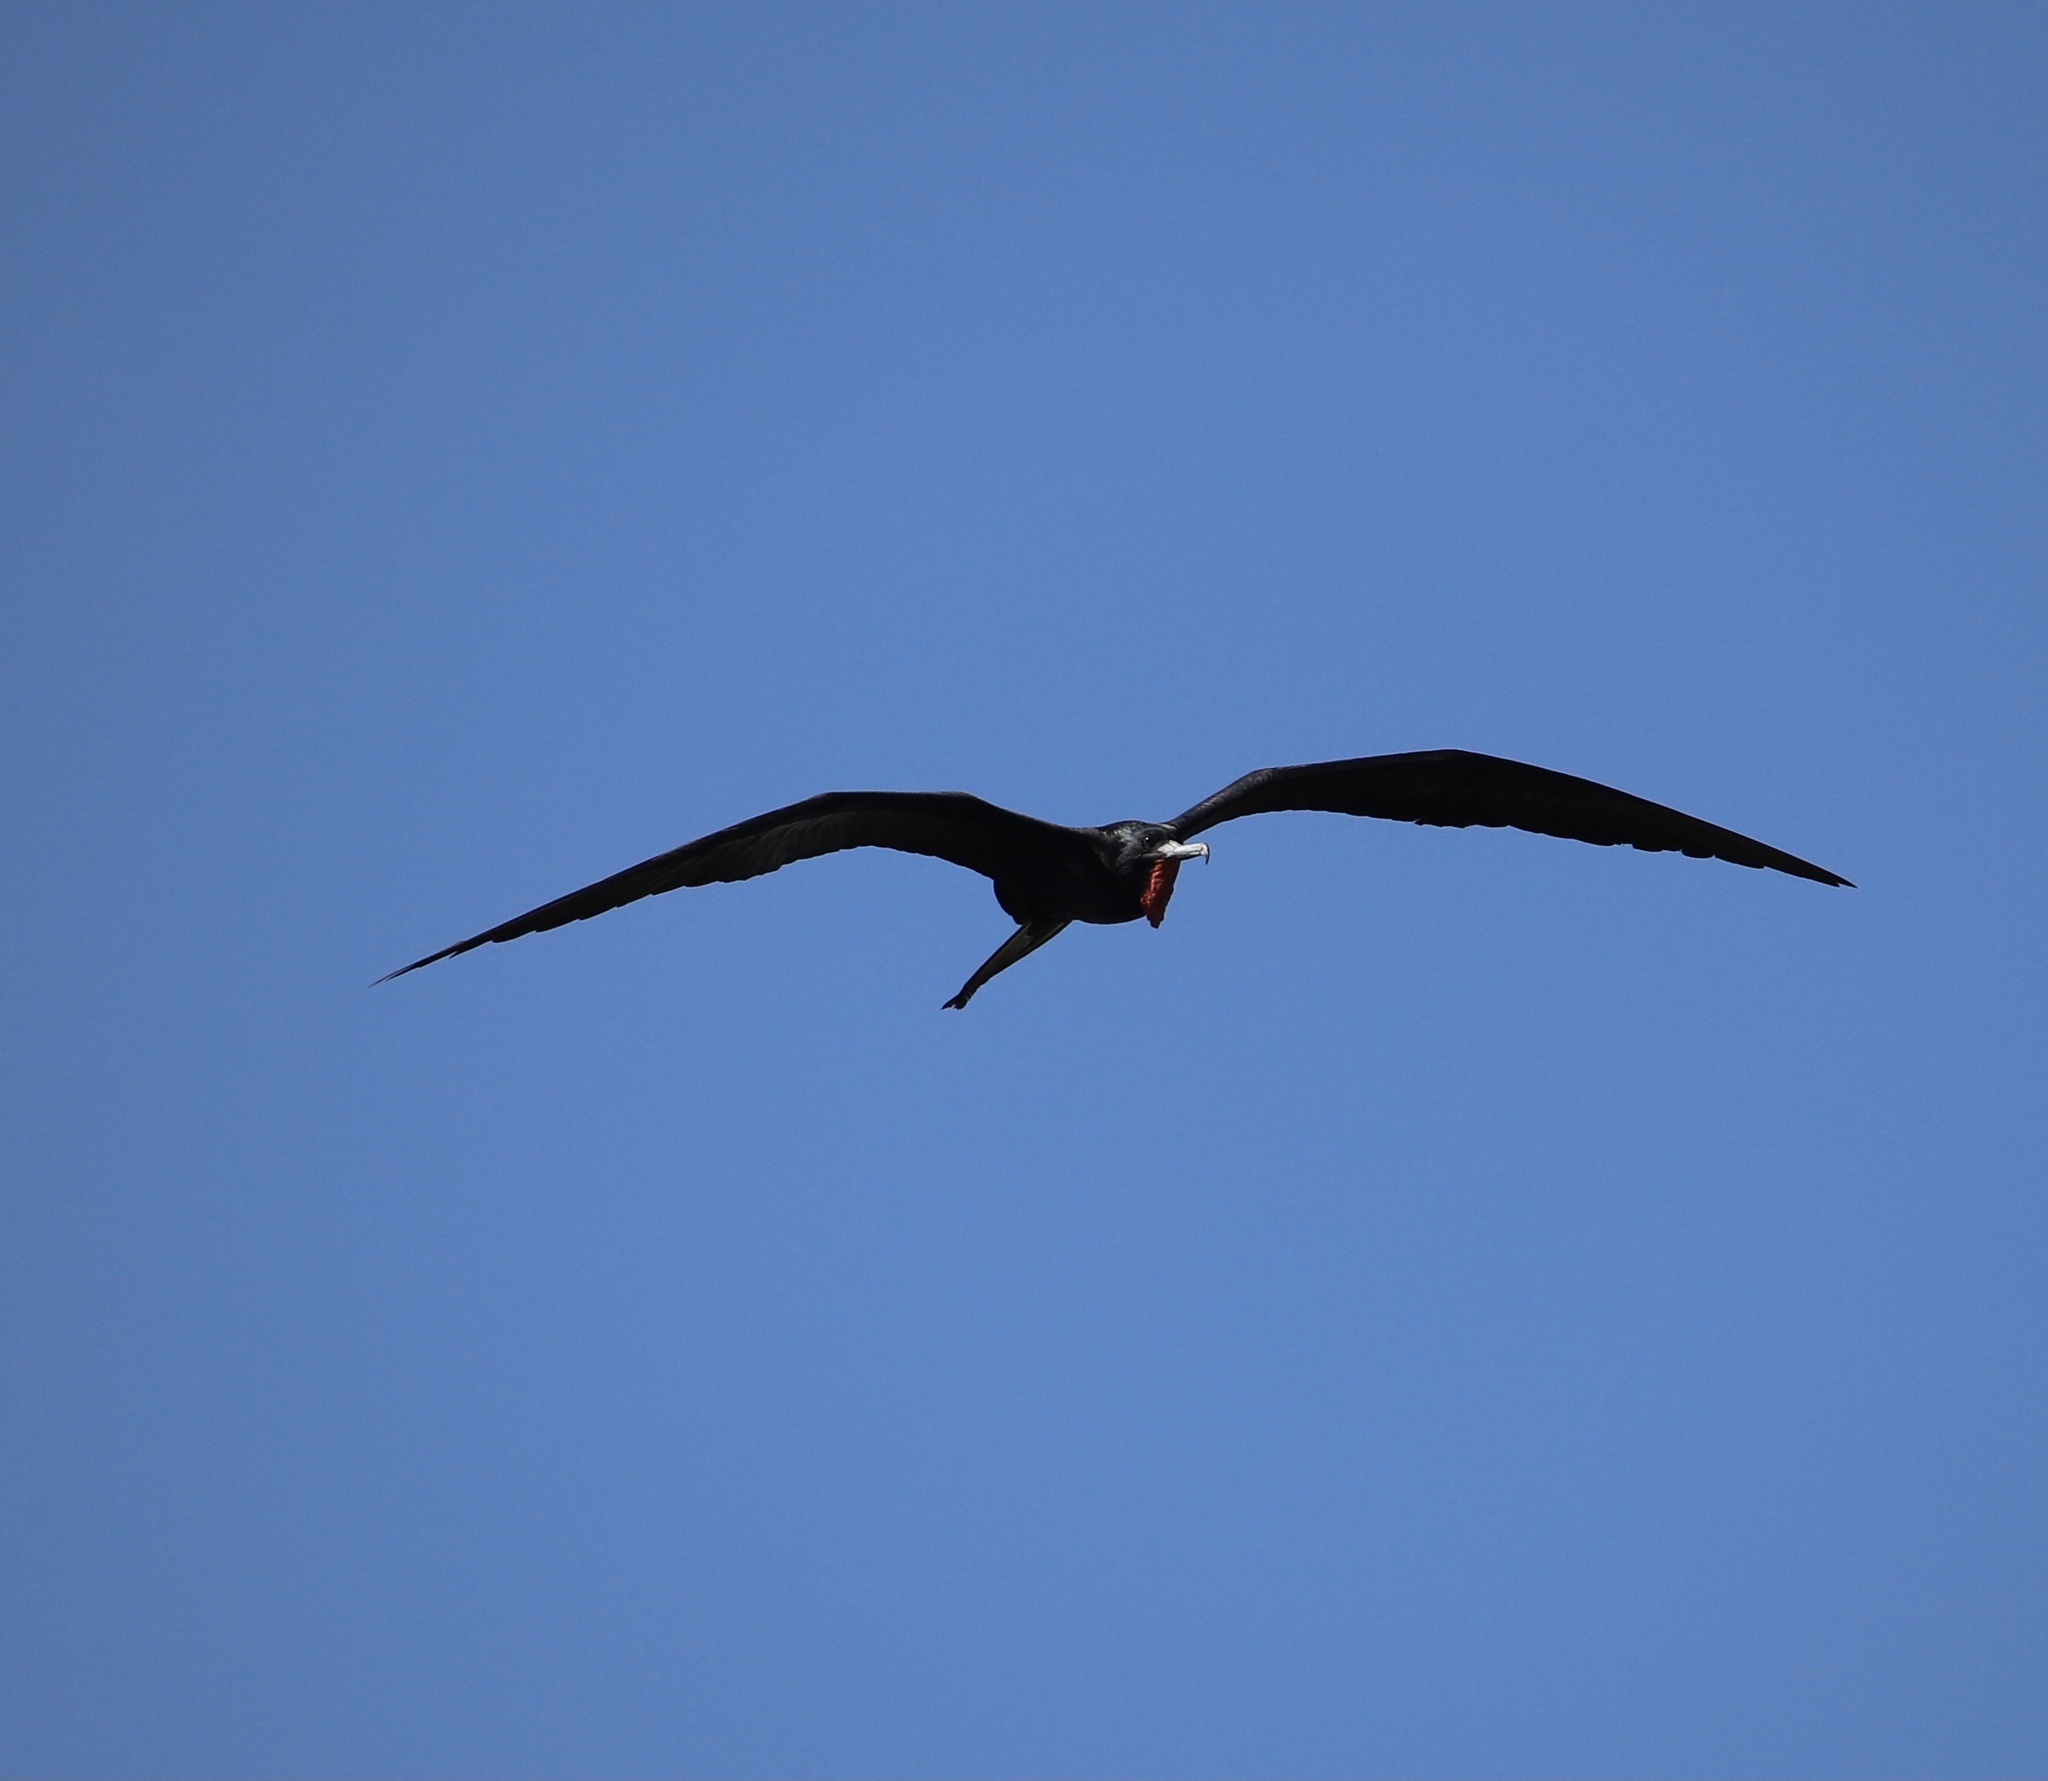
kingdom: Animalia
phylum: Chordata
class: Aves
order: Suliformes
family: Fregatidae
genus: Fregata
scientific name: Fregata magnificens
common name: Magnificent frigatebird
